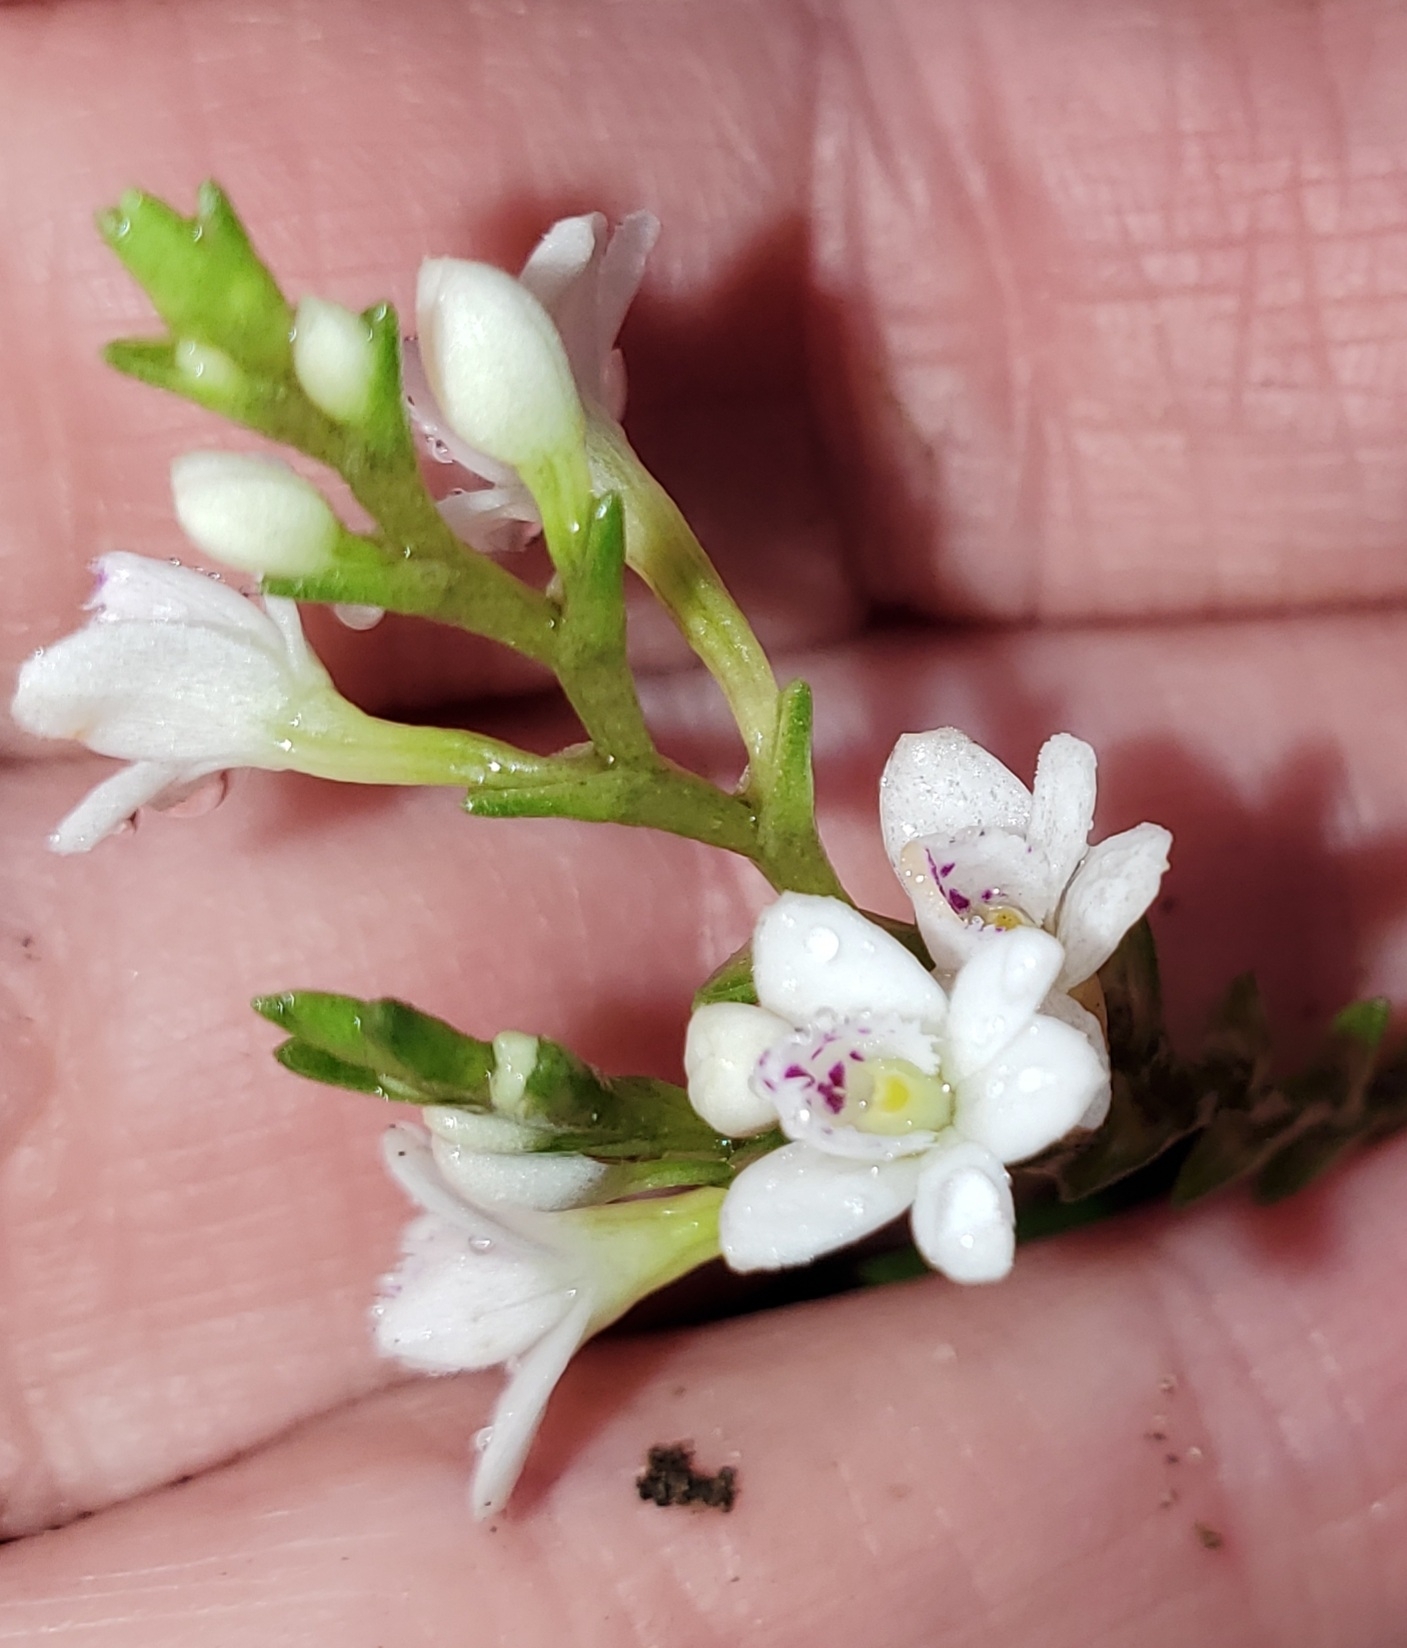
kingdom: Plantae
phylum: Tracheophyta
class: Liliopsida
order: Asparagales
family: Orchidaceae
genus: Epidendrum
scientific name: Epidendrum fimbriatum
